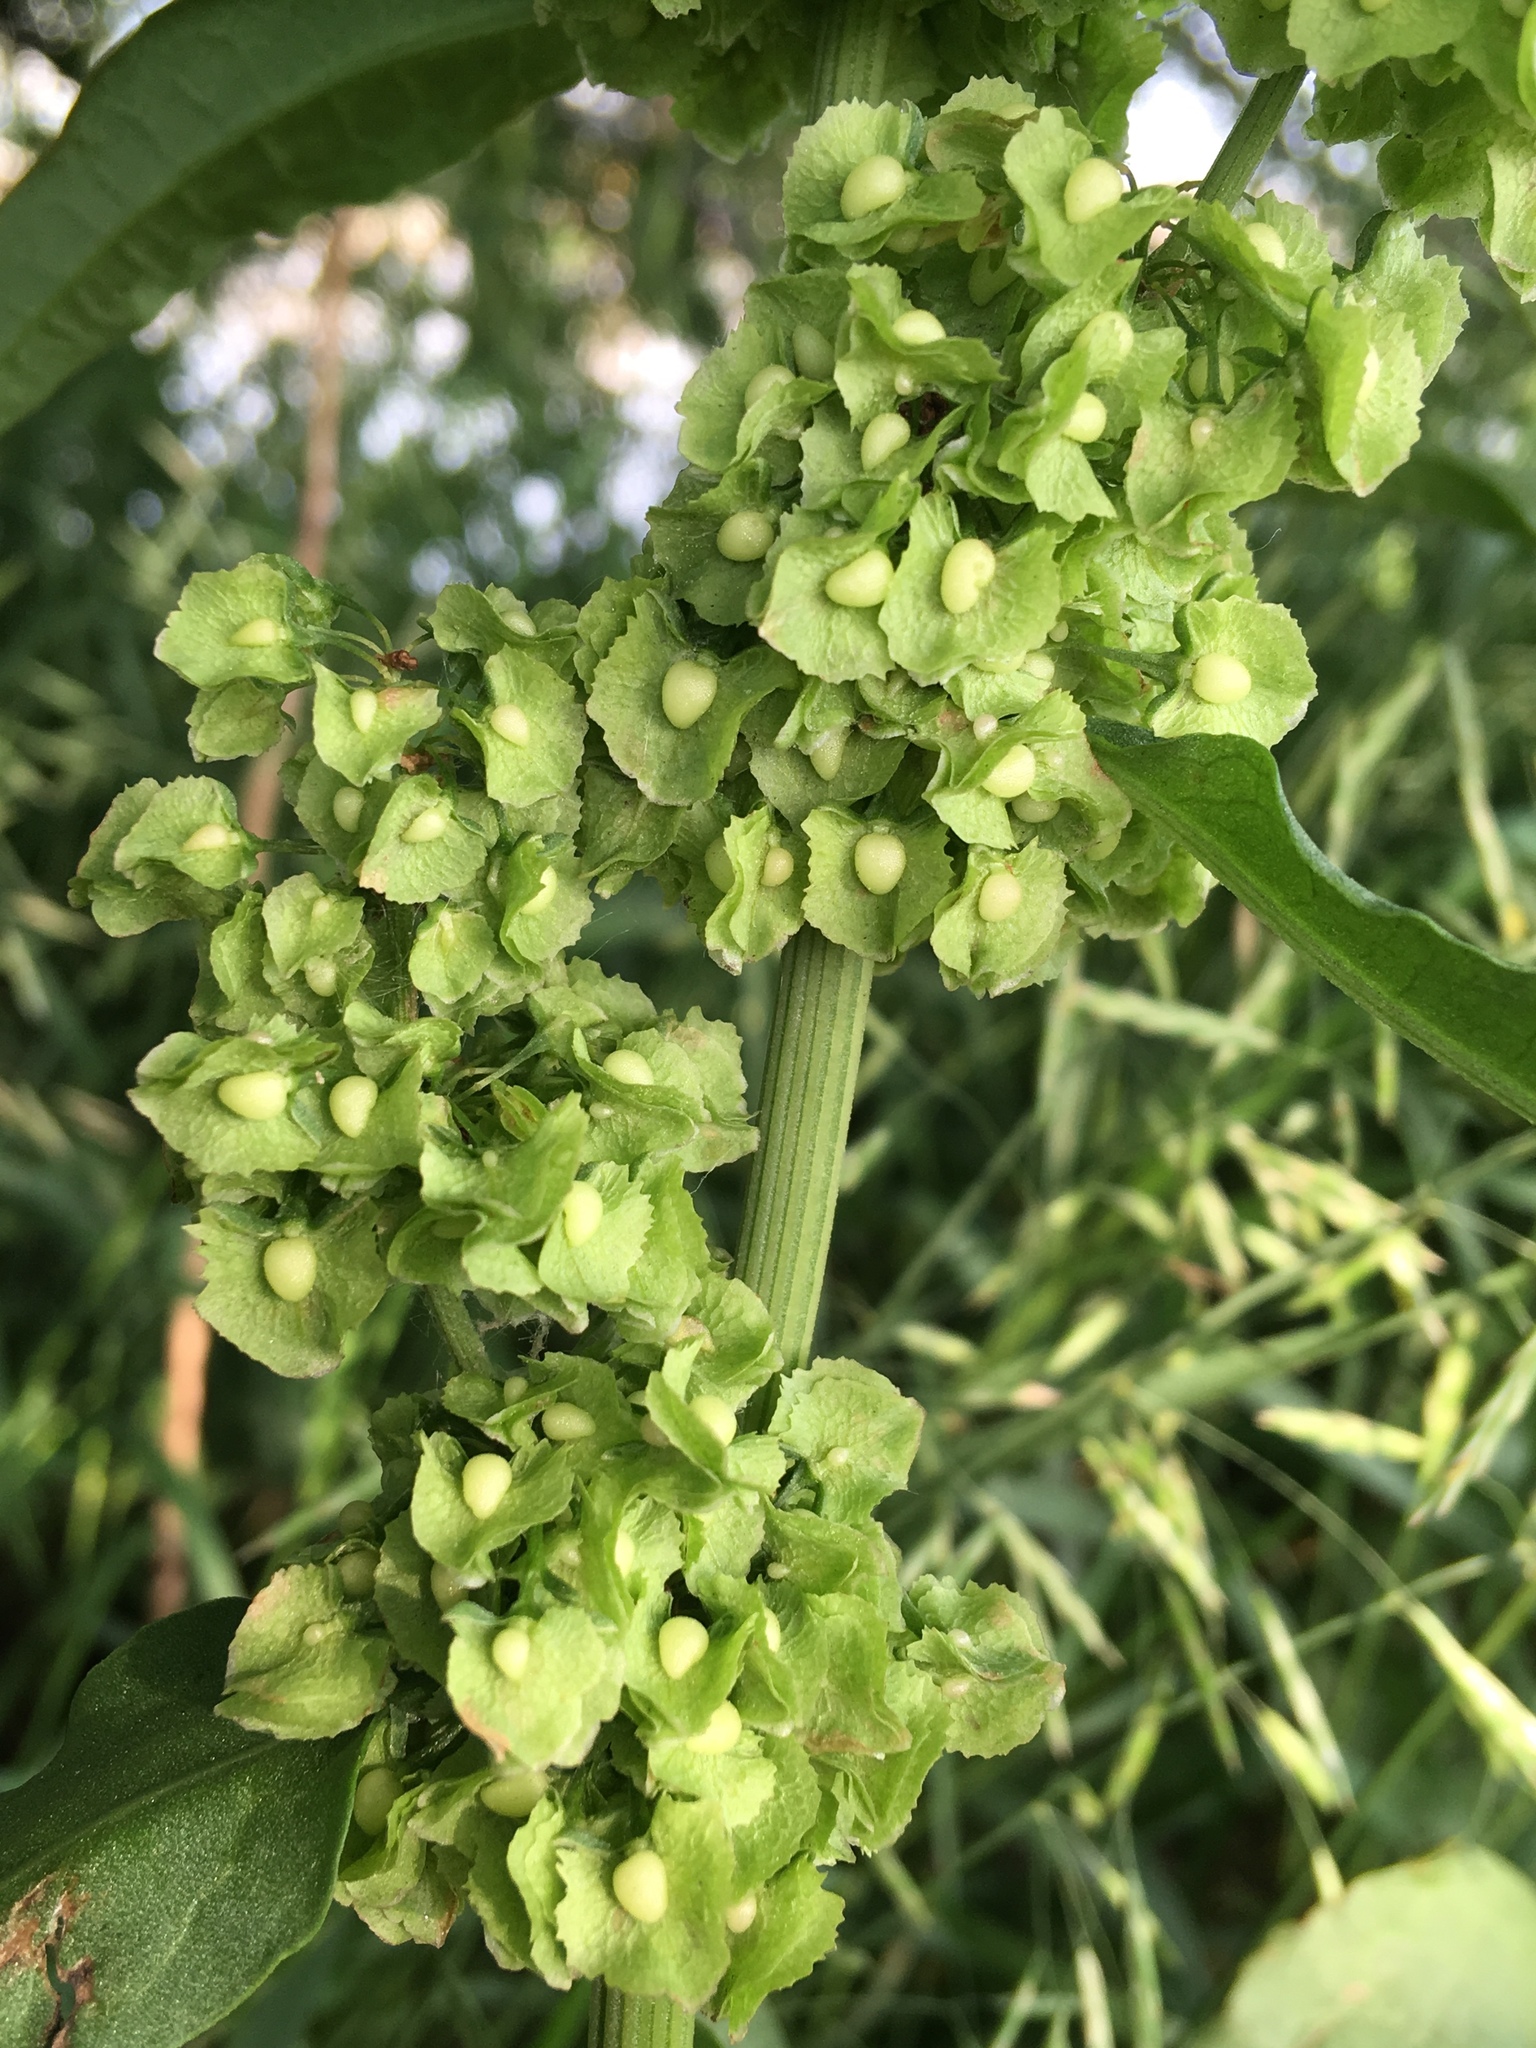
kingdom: Plantae
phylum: Tracheophyta
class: Magnoliopsida
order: Caryophyllales
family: Polygonaceae
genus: Rumex
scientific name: Rumex cristatus
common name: Greek dock
